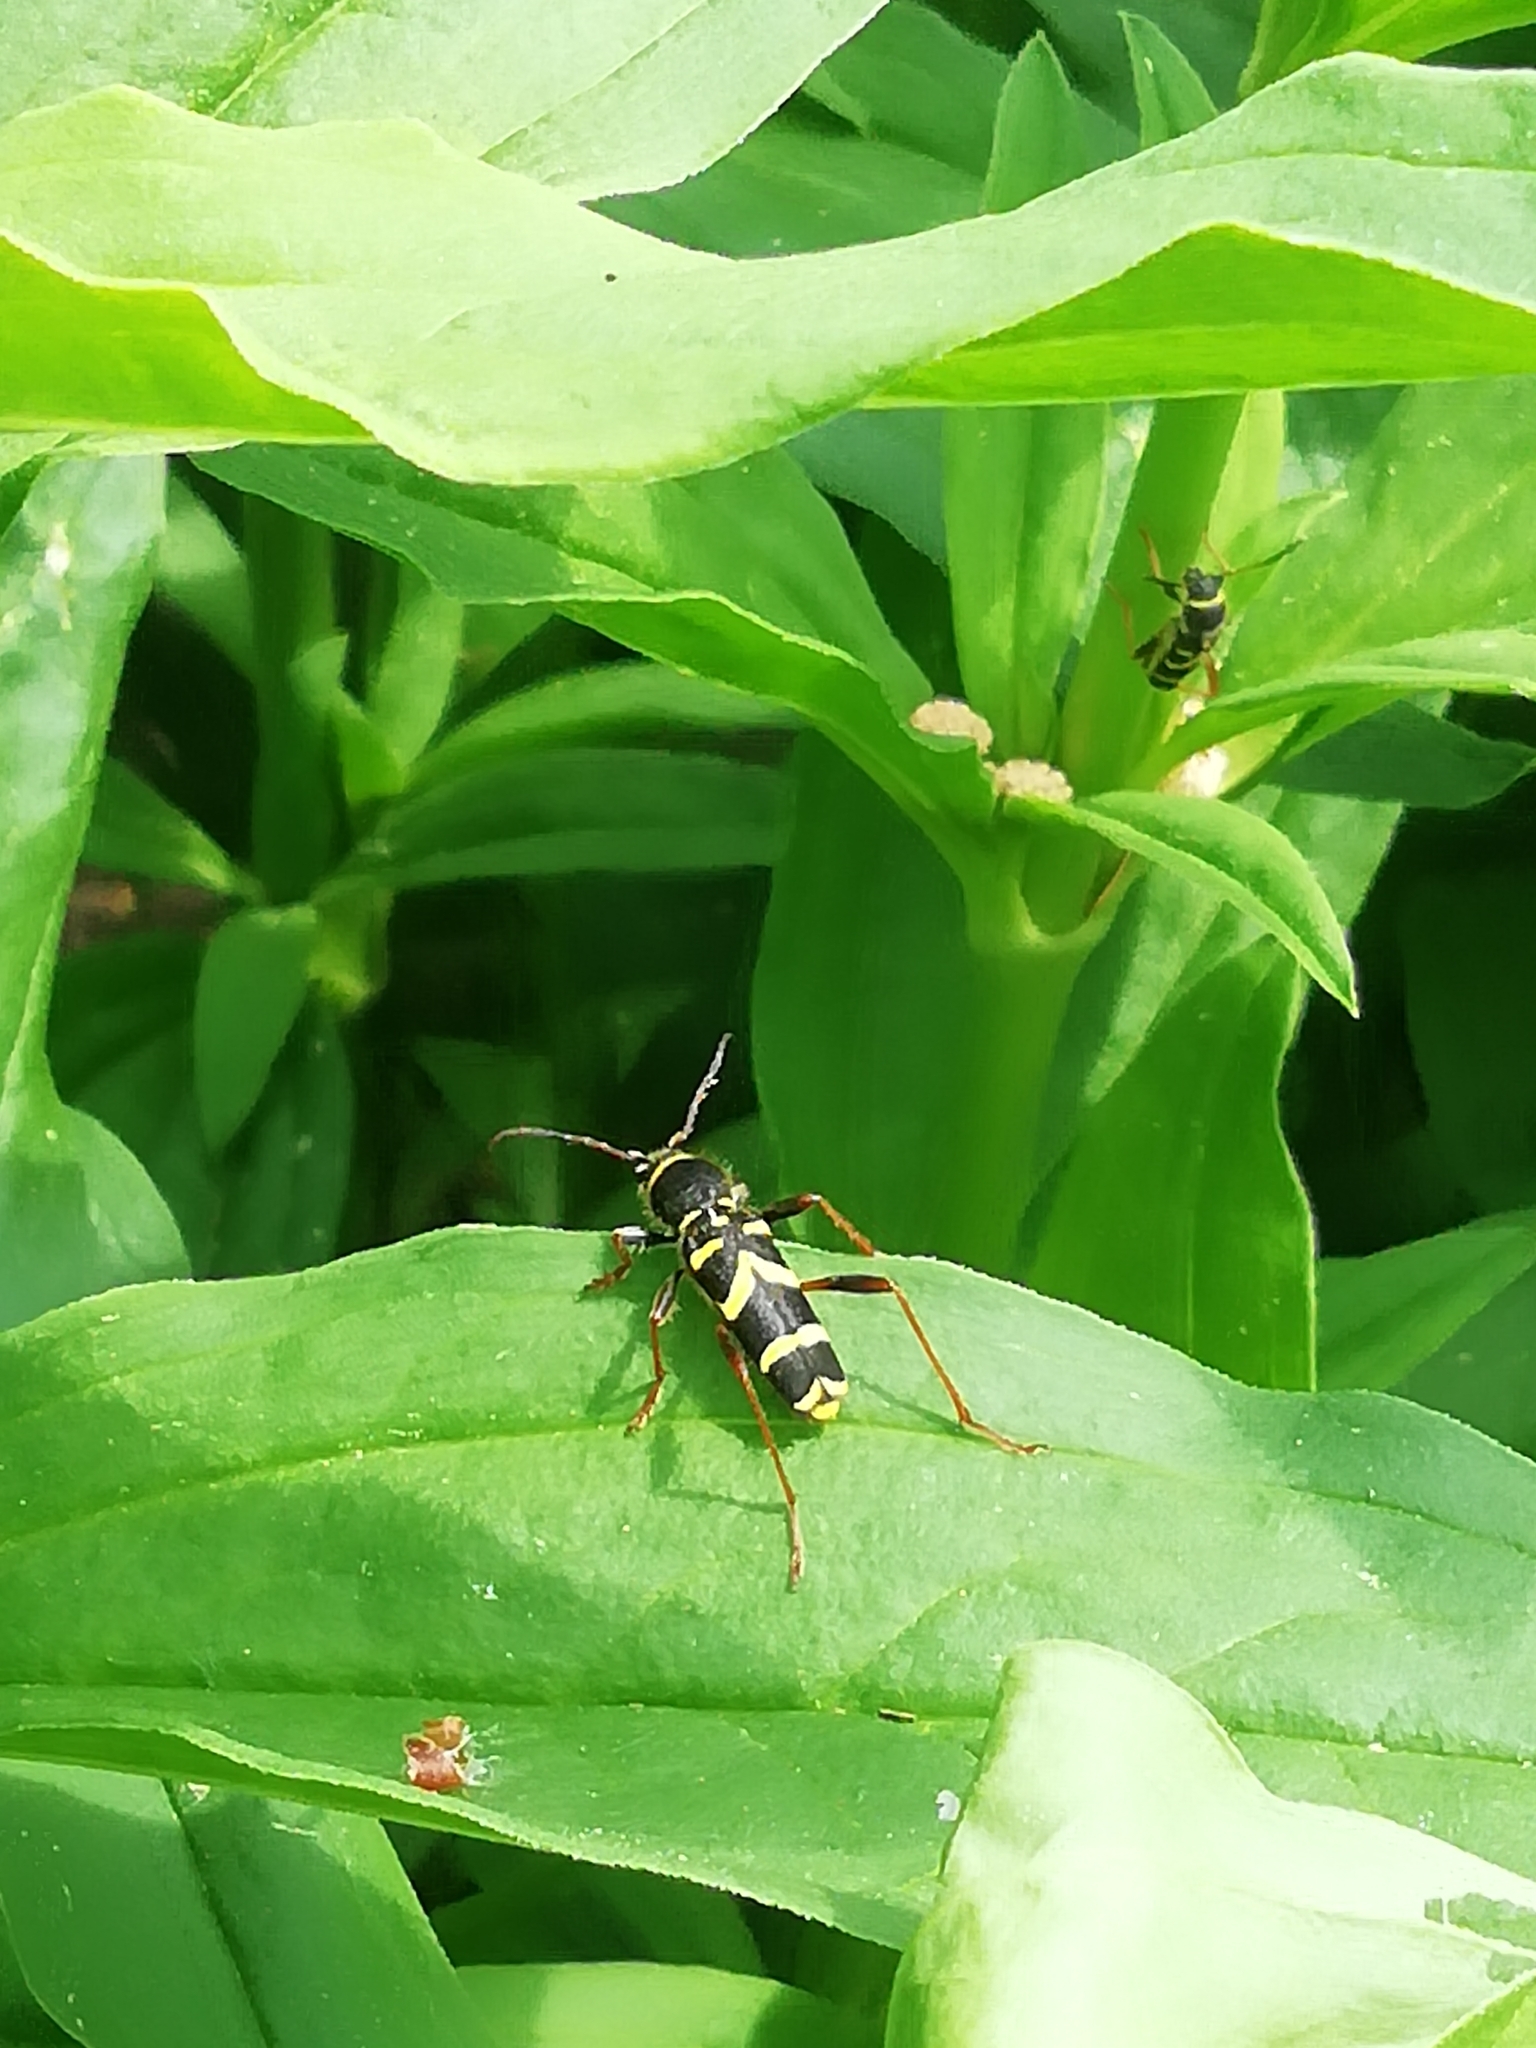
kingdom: Animalia
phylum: Arthropoda
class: Insecta
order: Coleoptera
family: Cerambycidae
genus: Clytus
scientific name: Clytus arietis
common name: Wasp beetle
